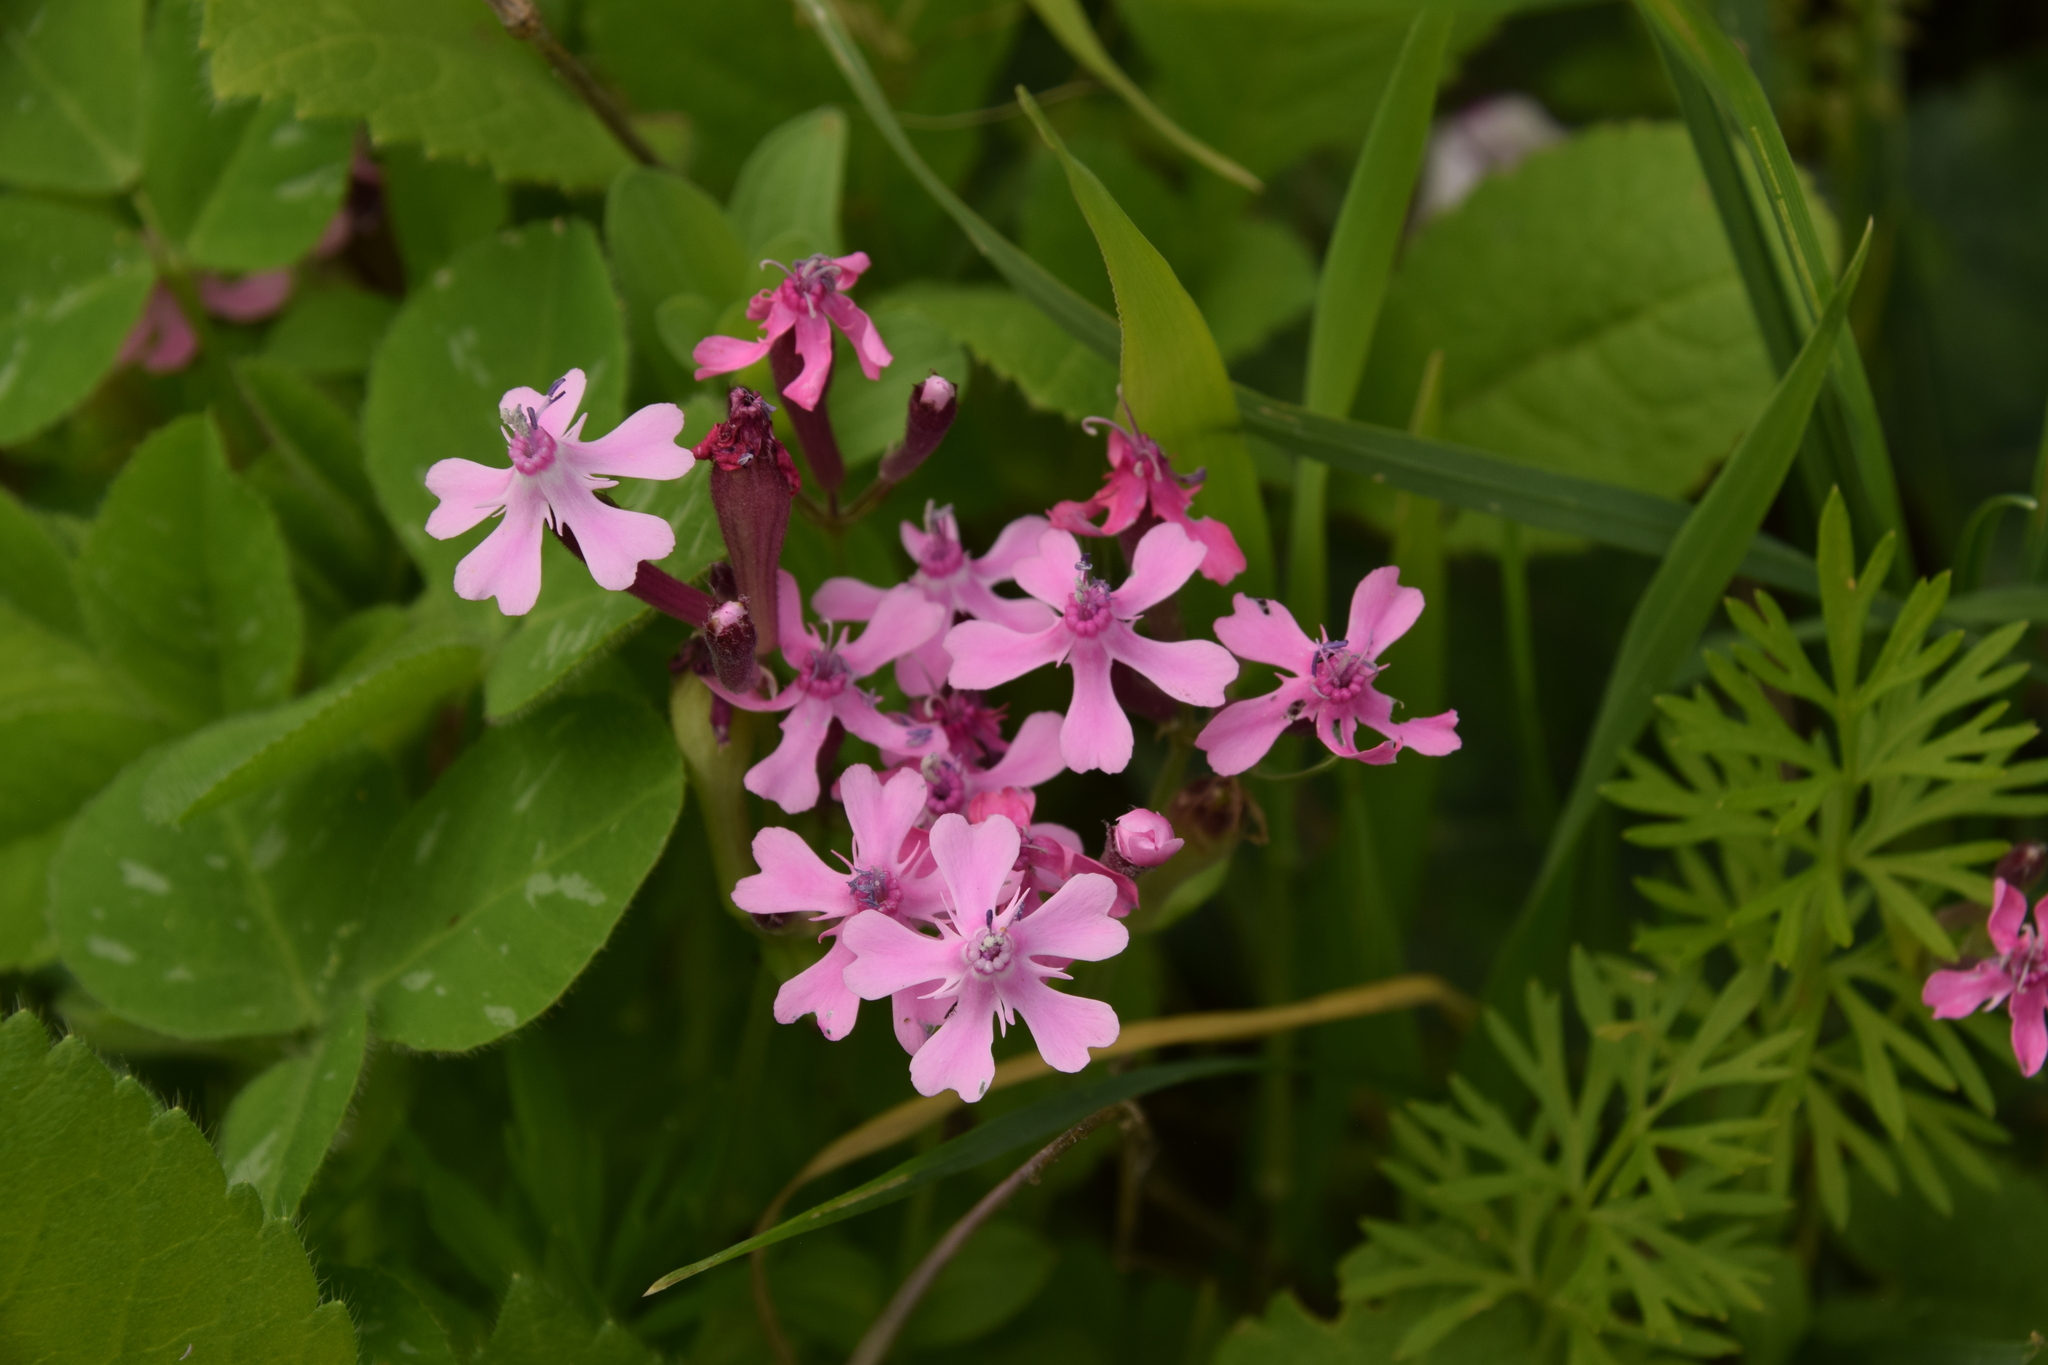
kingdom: Plantae
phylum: Tracheophyta
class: Magnoliopsida
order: Caryophyllales
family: Caryophyllaceae
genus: Silene
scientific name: Silene aegyptiaca
